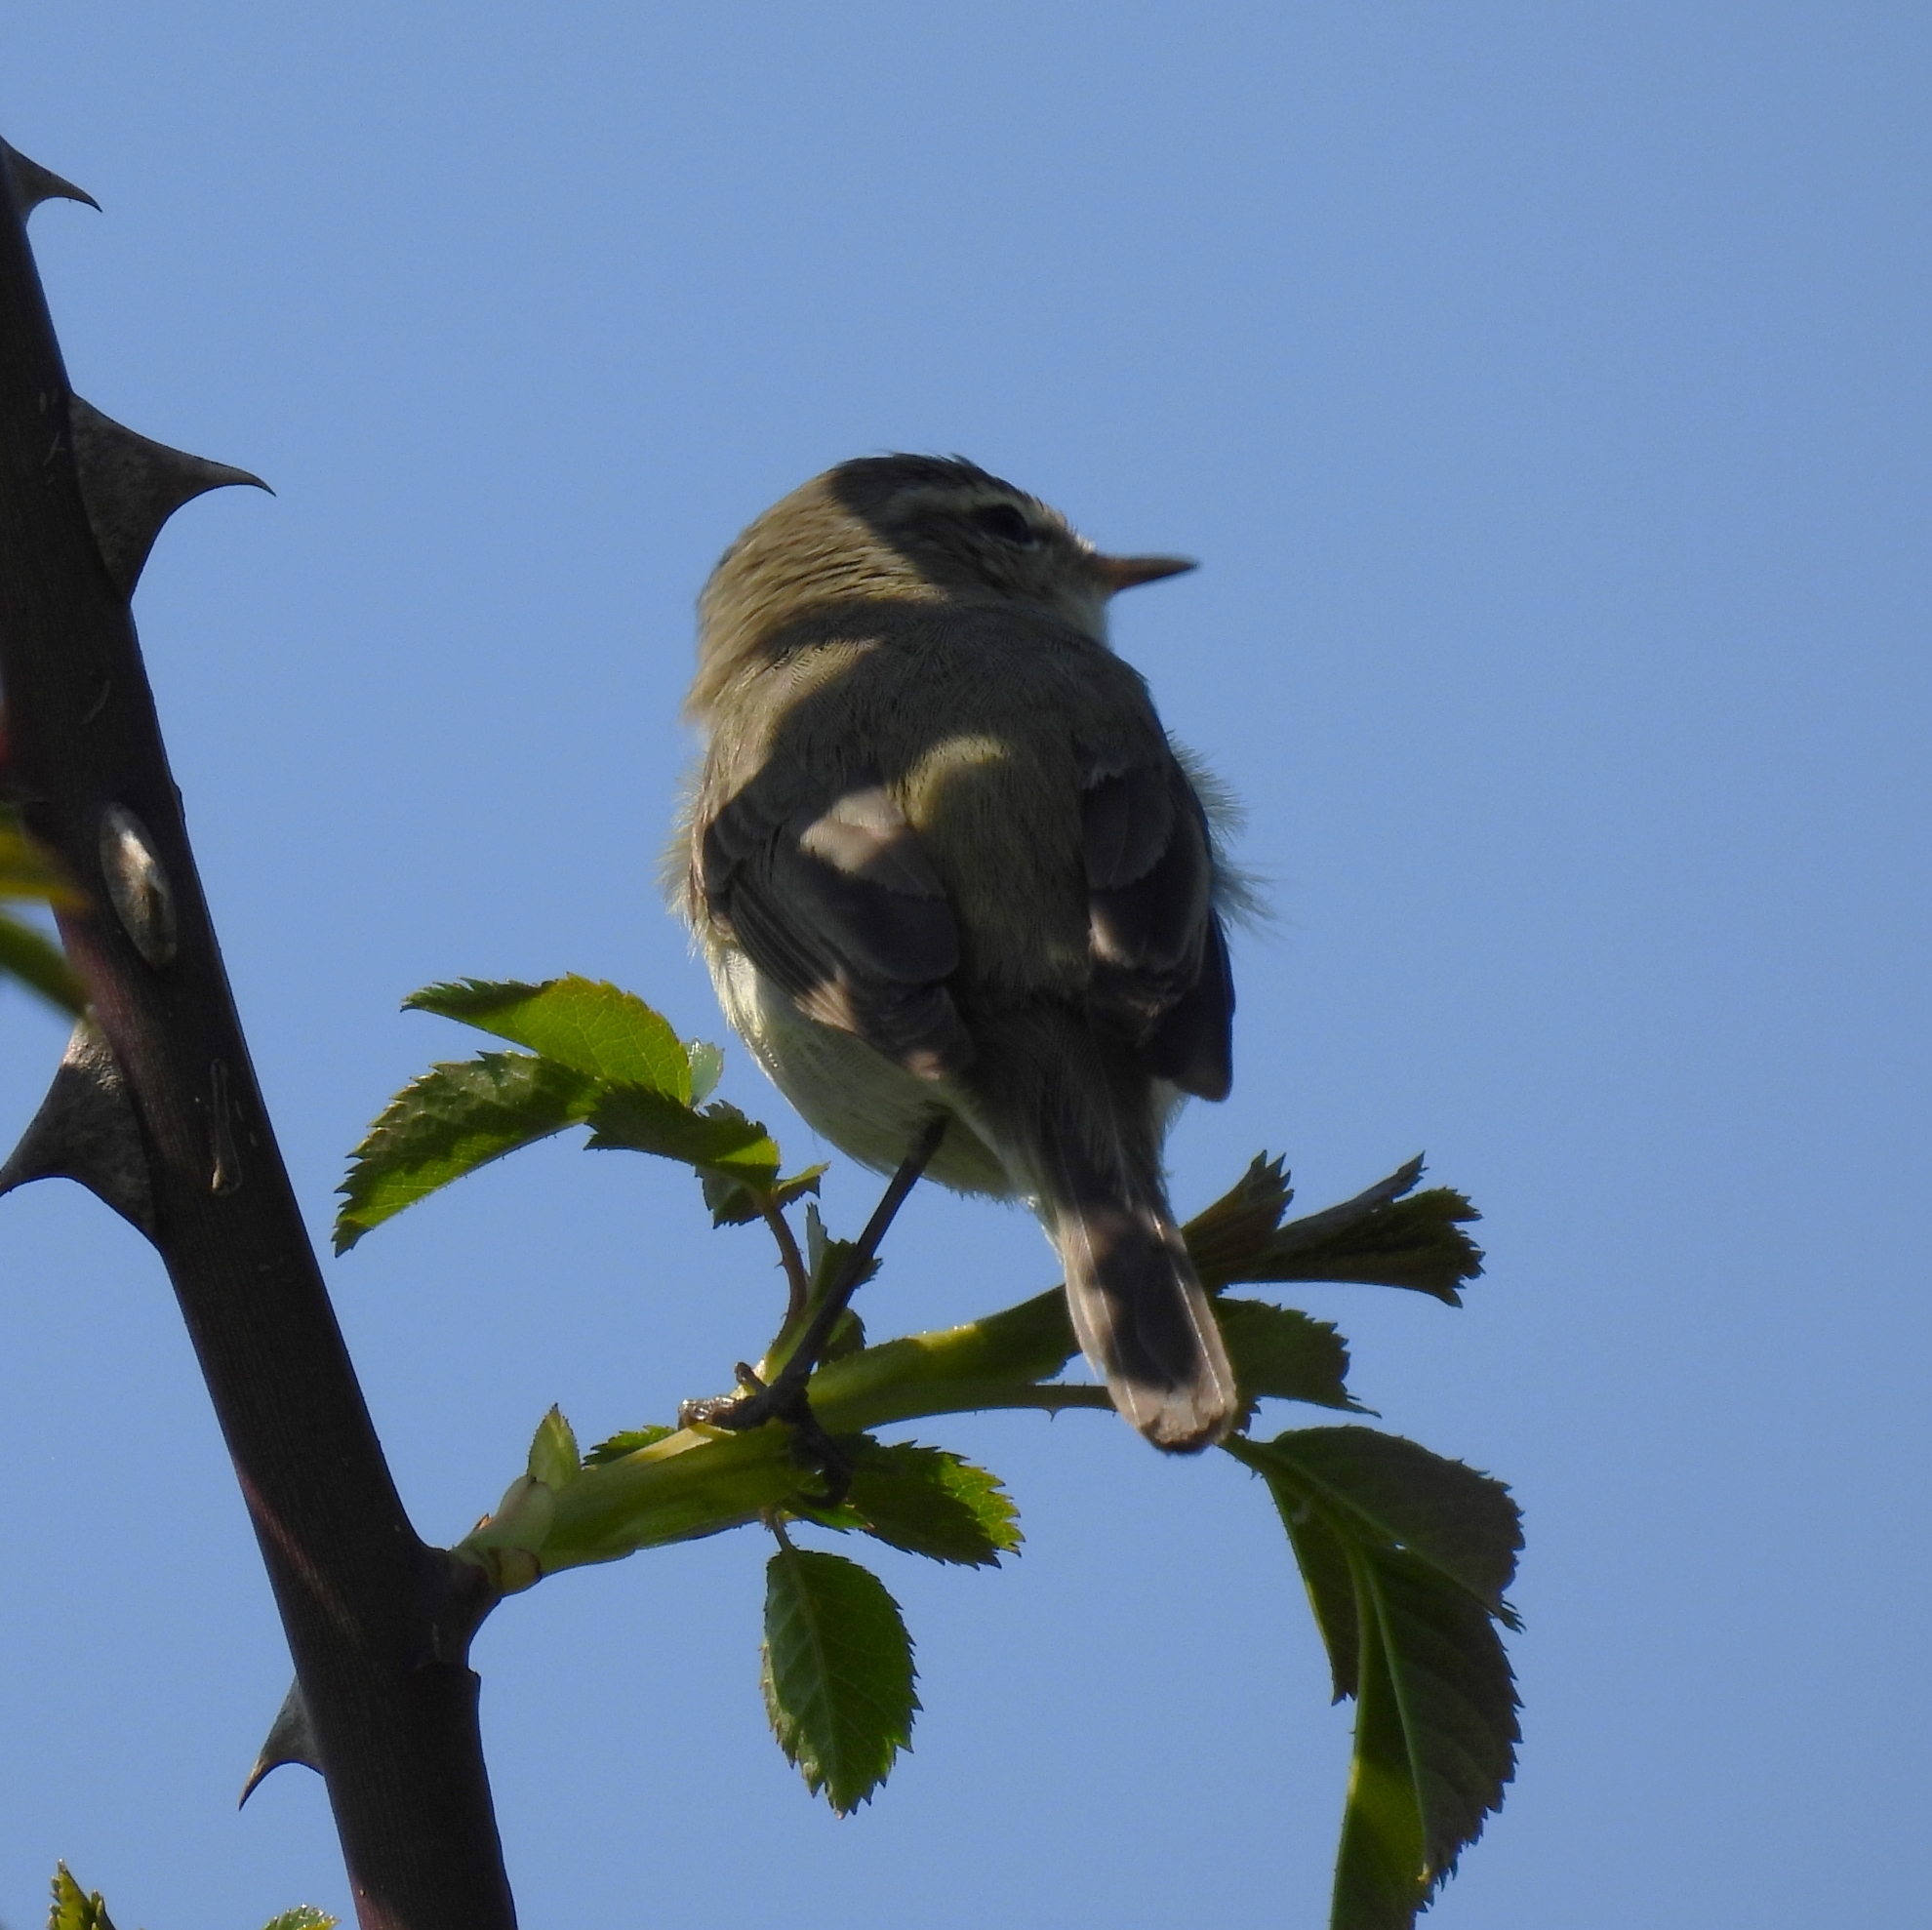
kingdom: Animalia
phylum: Chordata
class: Aves
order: Passeriformes
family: Phylloscopidae
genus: Phylloscopus
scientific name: Phylloscopus collybita
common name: Common chiffchaff
